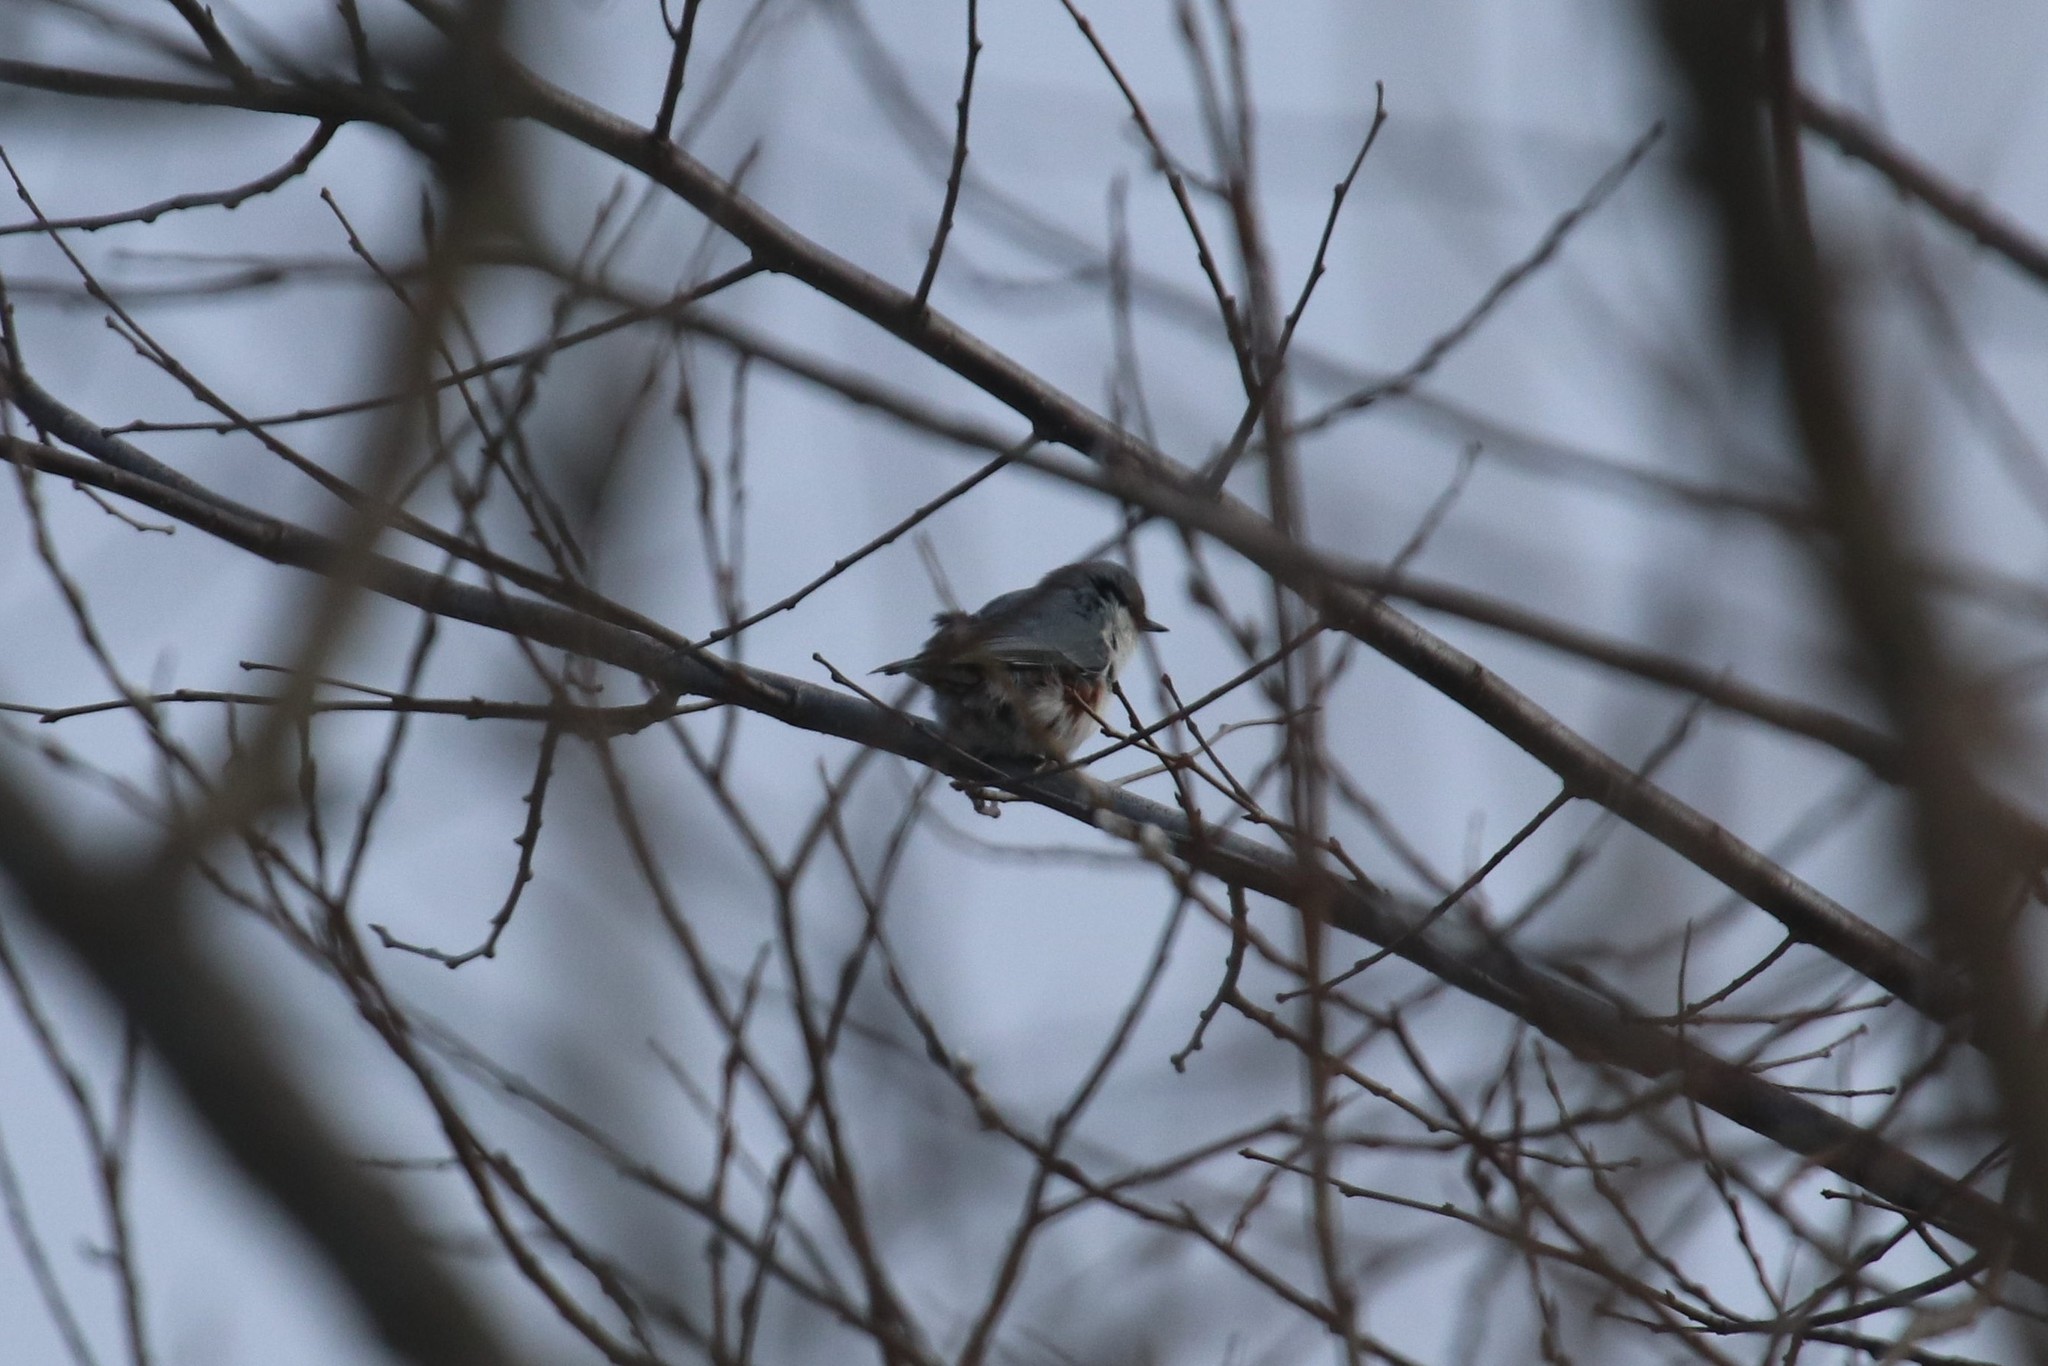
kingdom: Animalia
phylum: Chordata
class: Aves
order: Passeriformes
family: Sittidae
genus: Sitta
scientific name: Sitta europaea
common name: Eurasian nuthatch
